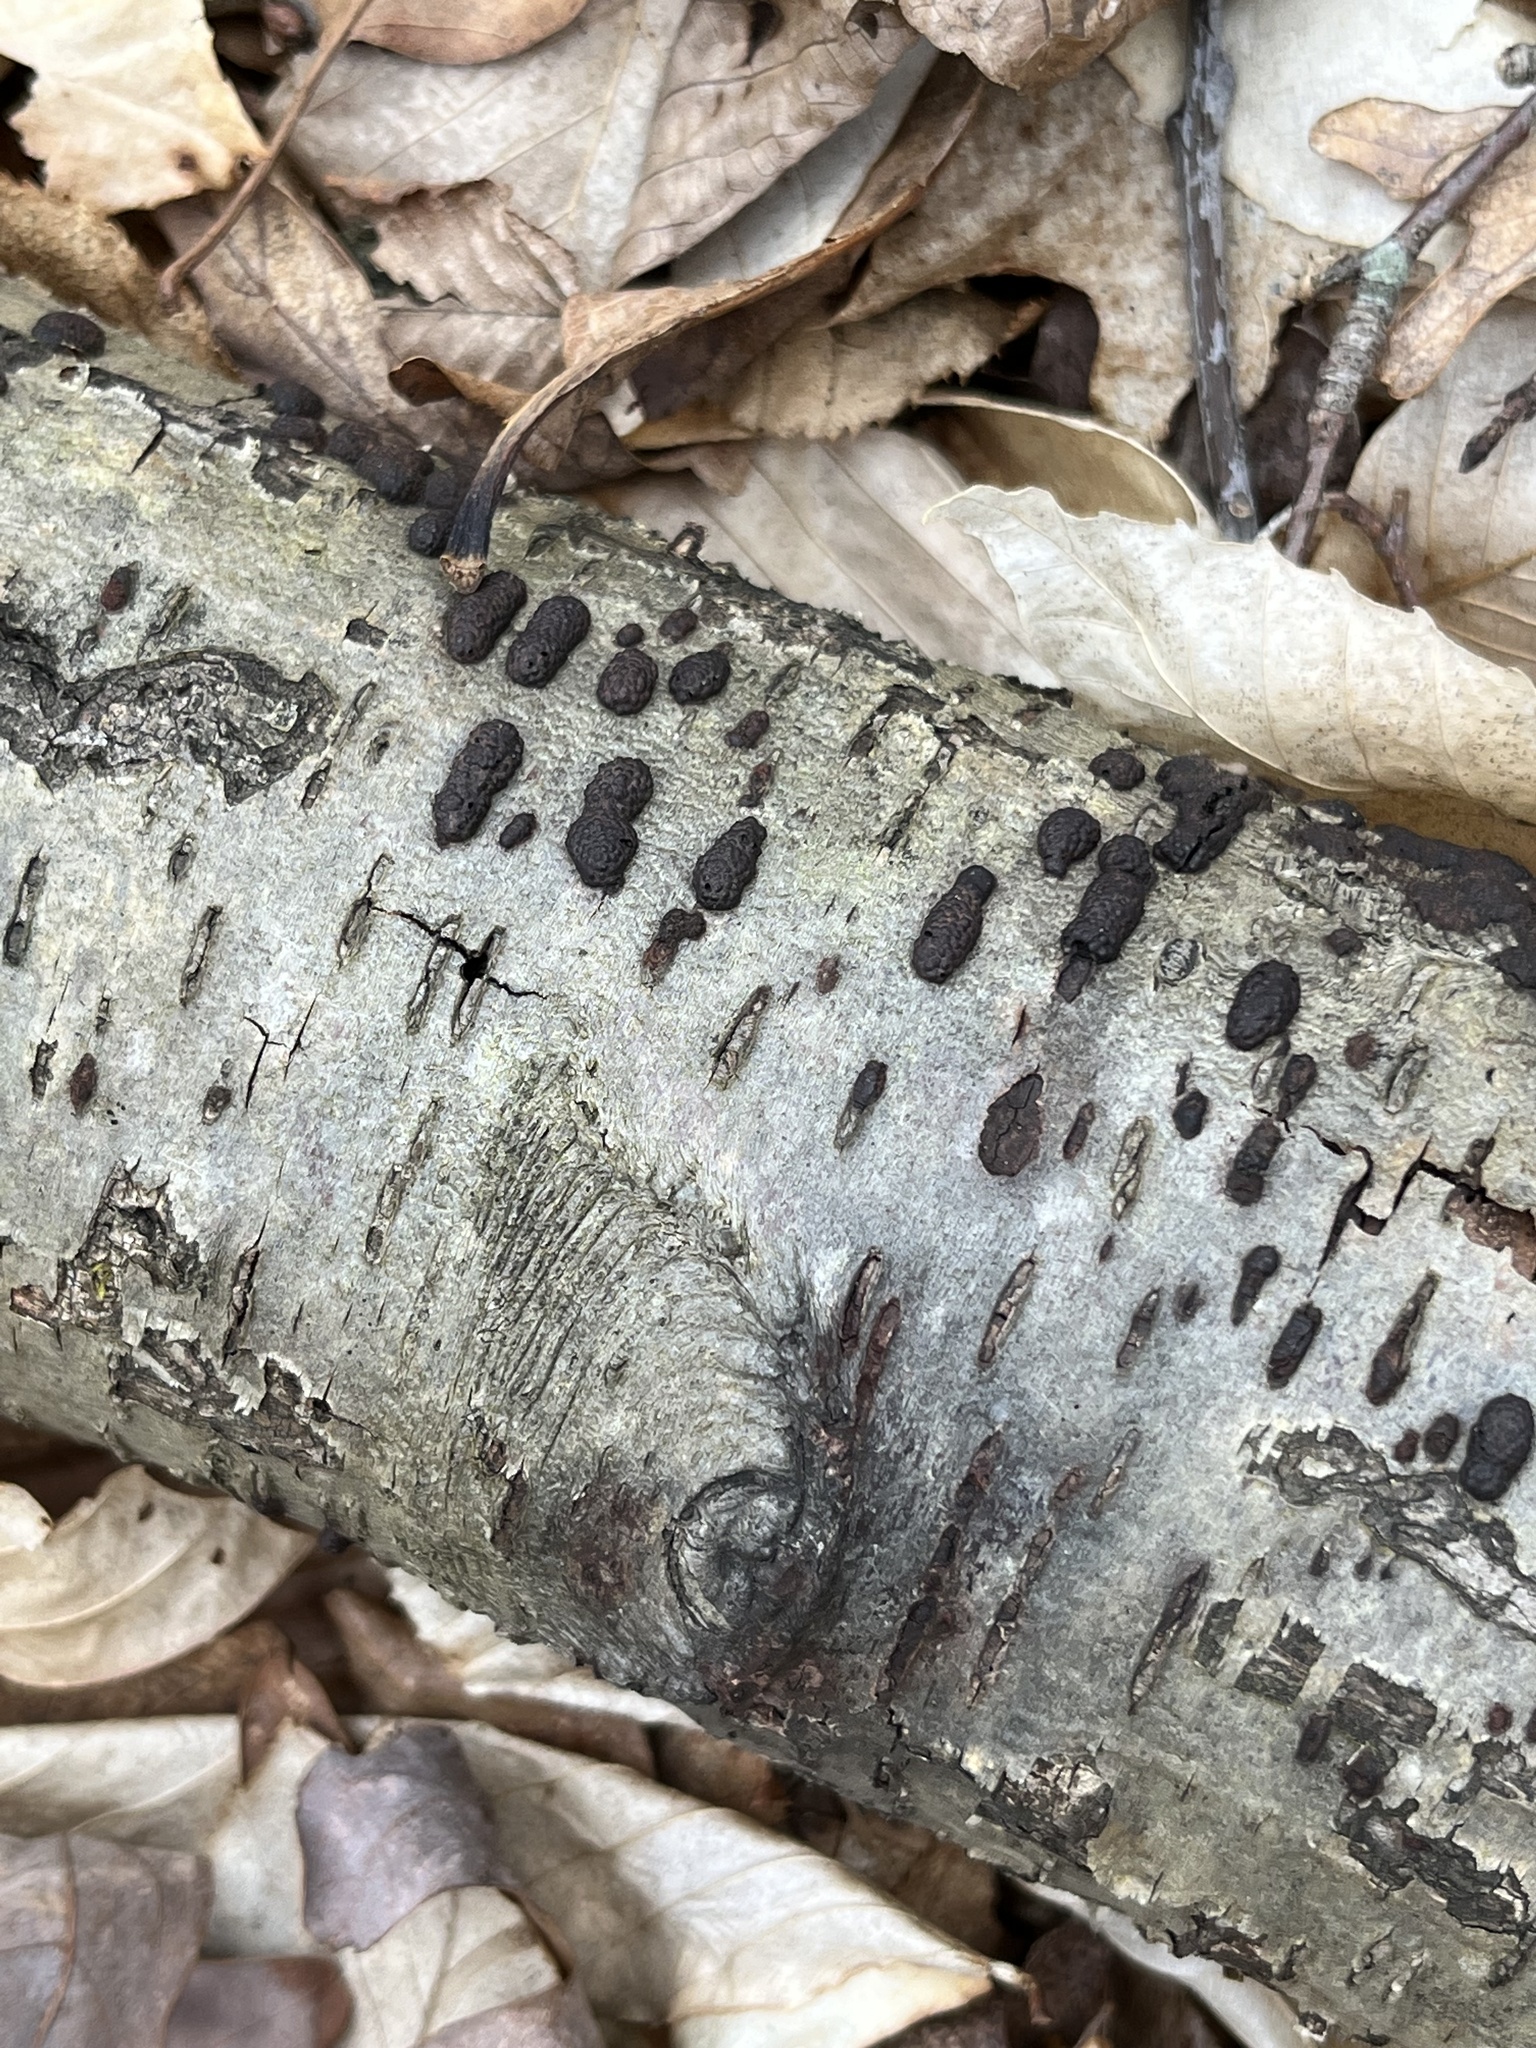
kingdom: Fungi
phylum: Ascomycota
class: Sordariomycetes
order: Xylariales
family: Hypoxylaceae
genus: Jackrogersella
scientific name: Jackrogersella multiformis
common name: Birch woodwart
